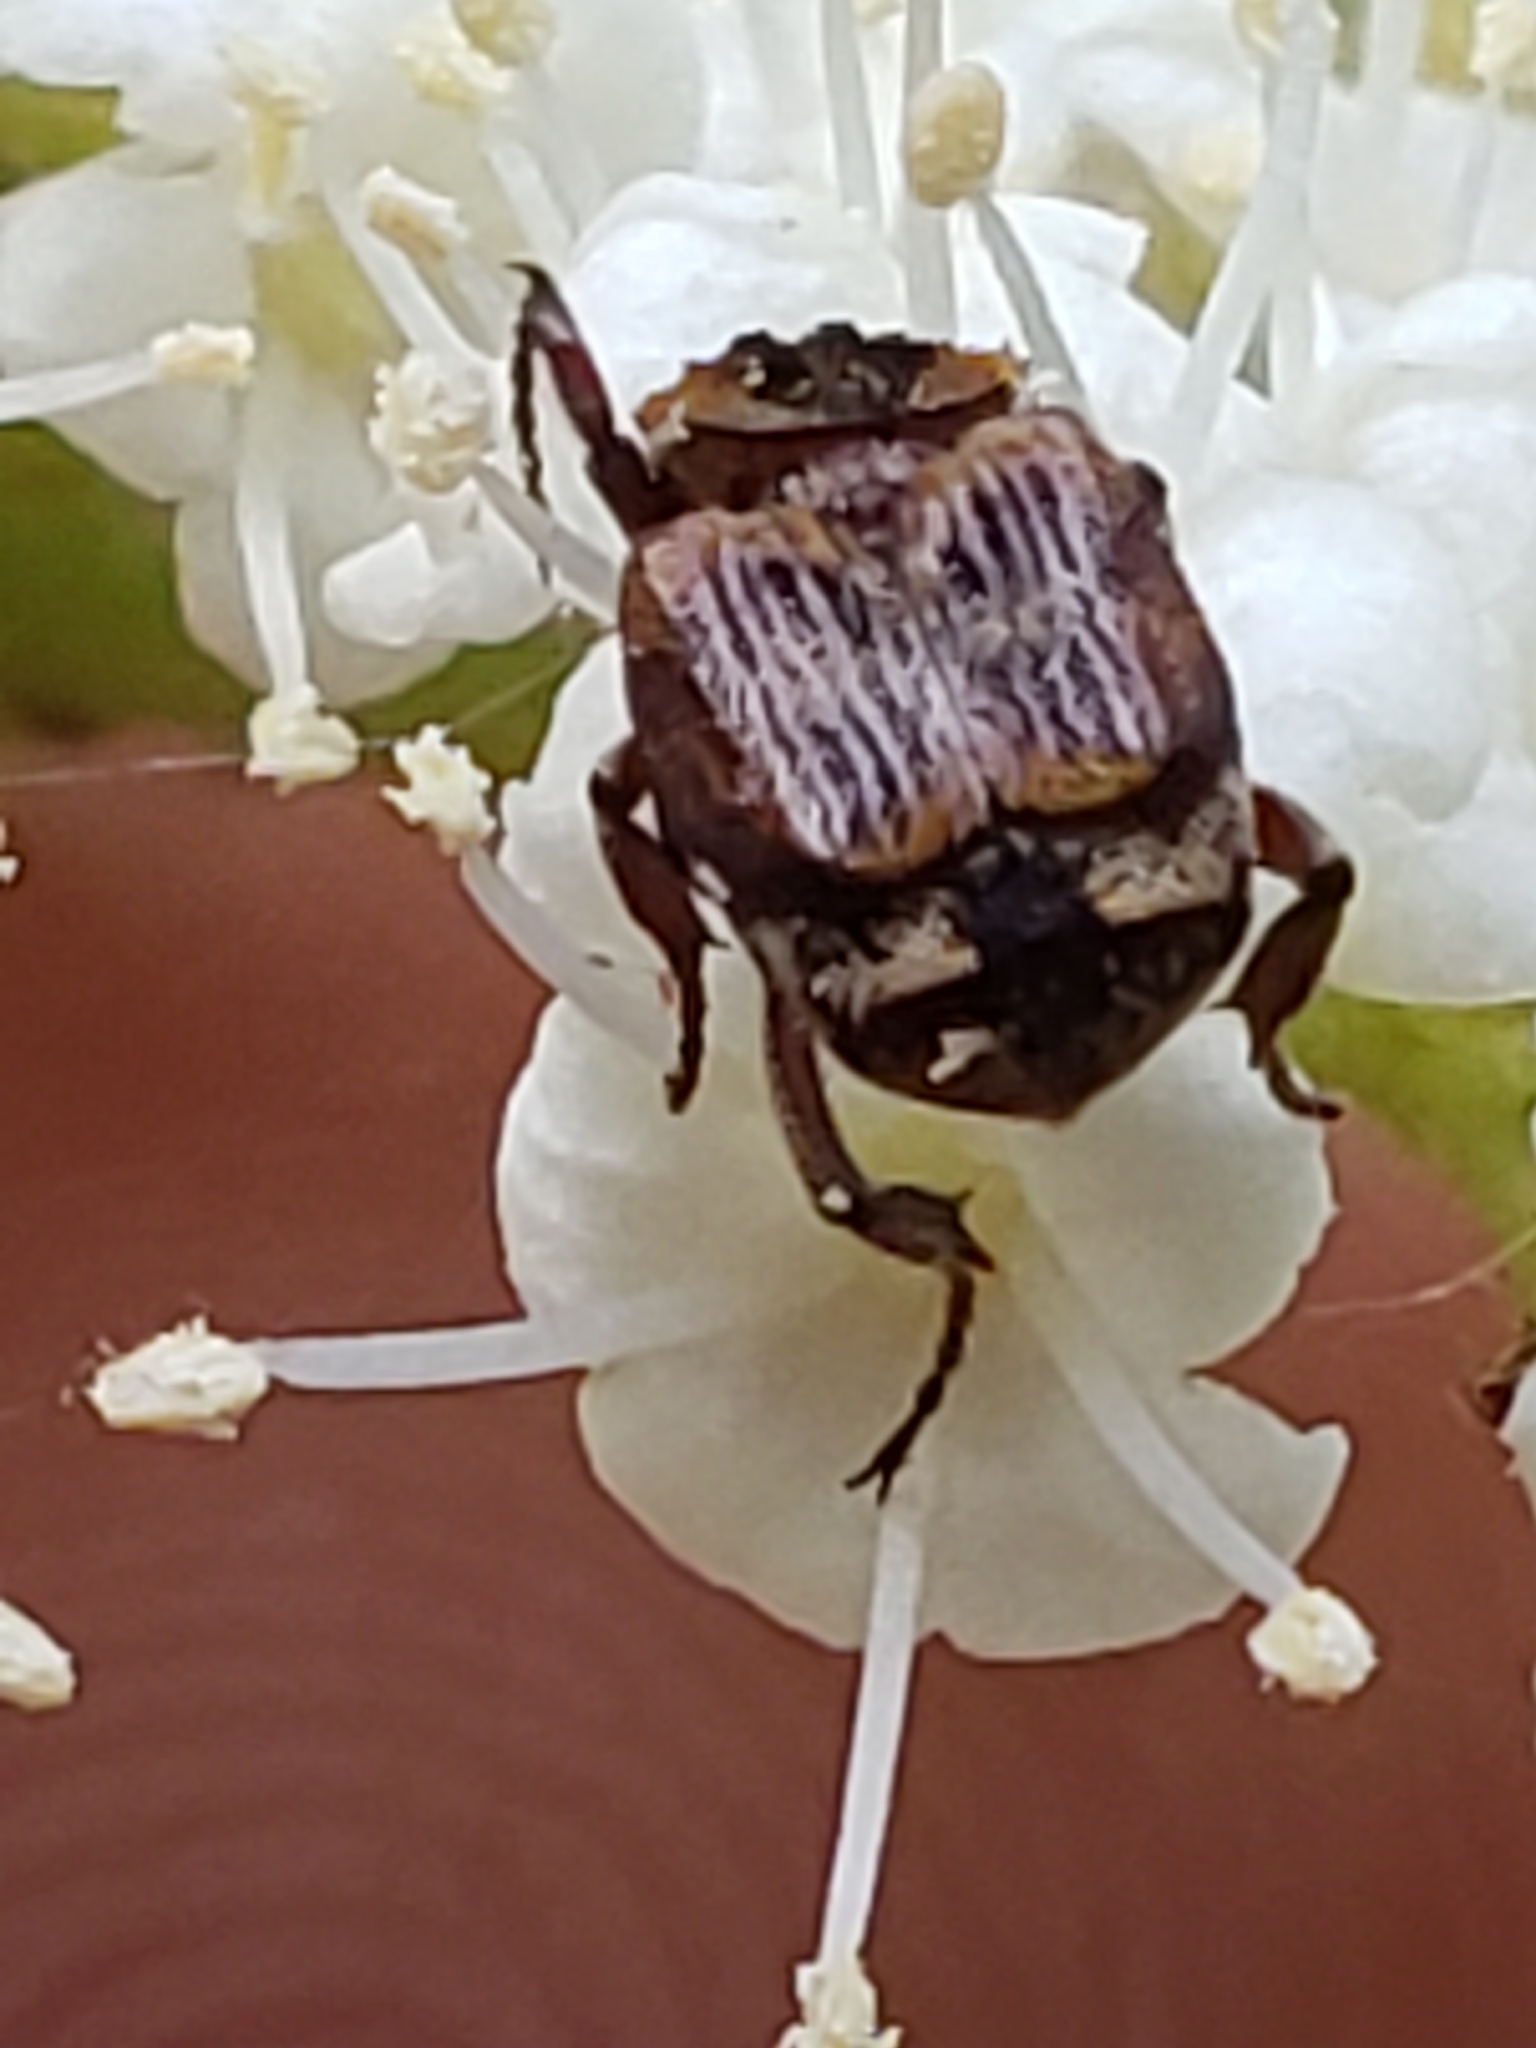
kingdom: Animalia
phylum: Arthropoda
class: Insecta
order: Coleoptera
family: Scarabaeidae
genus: Valgus
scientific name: Valgus canaliculatus
